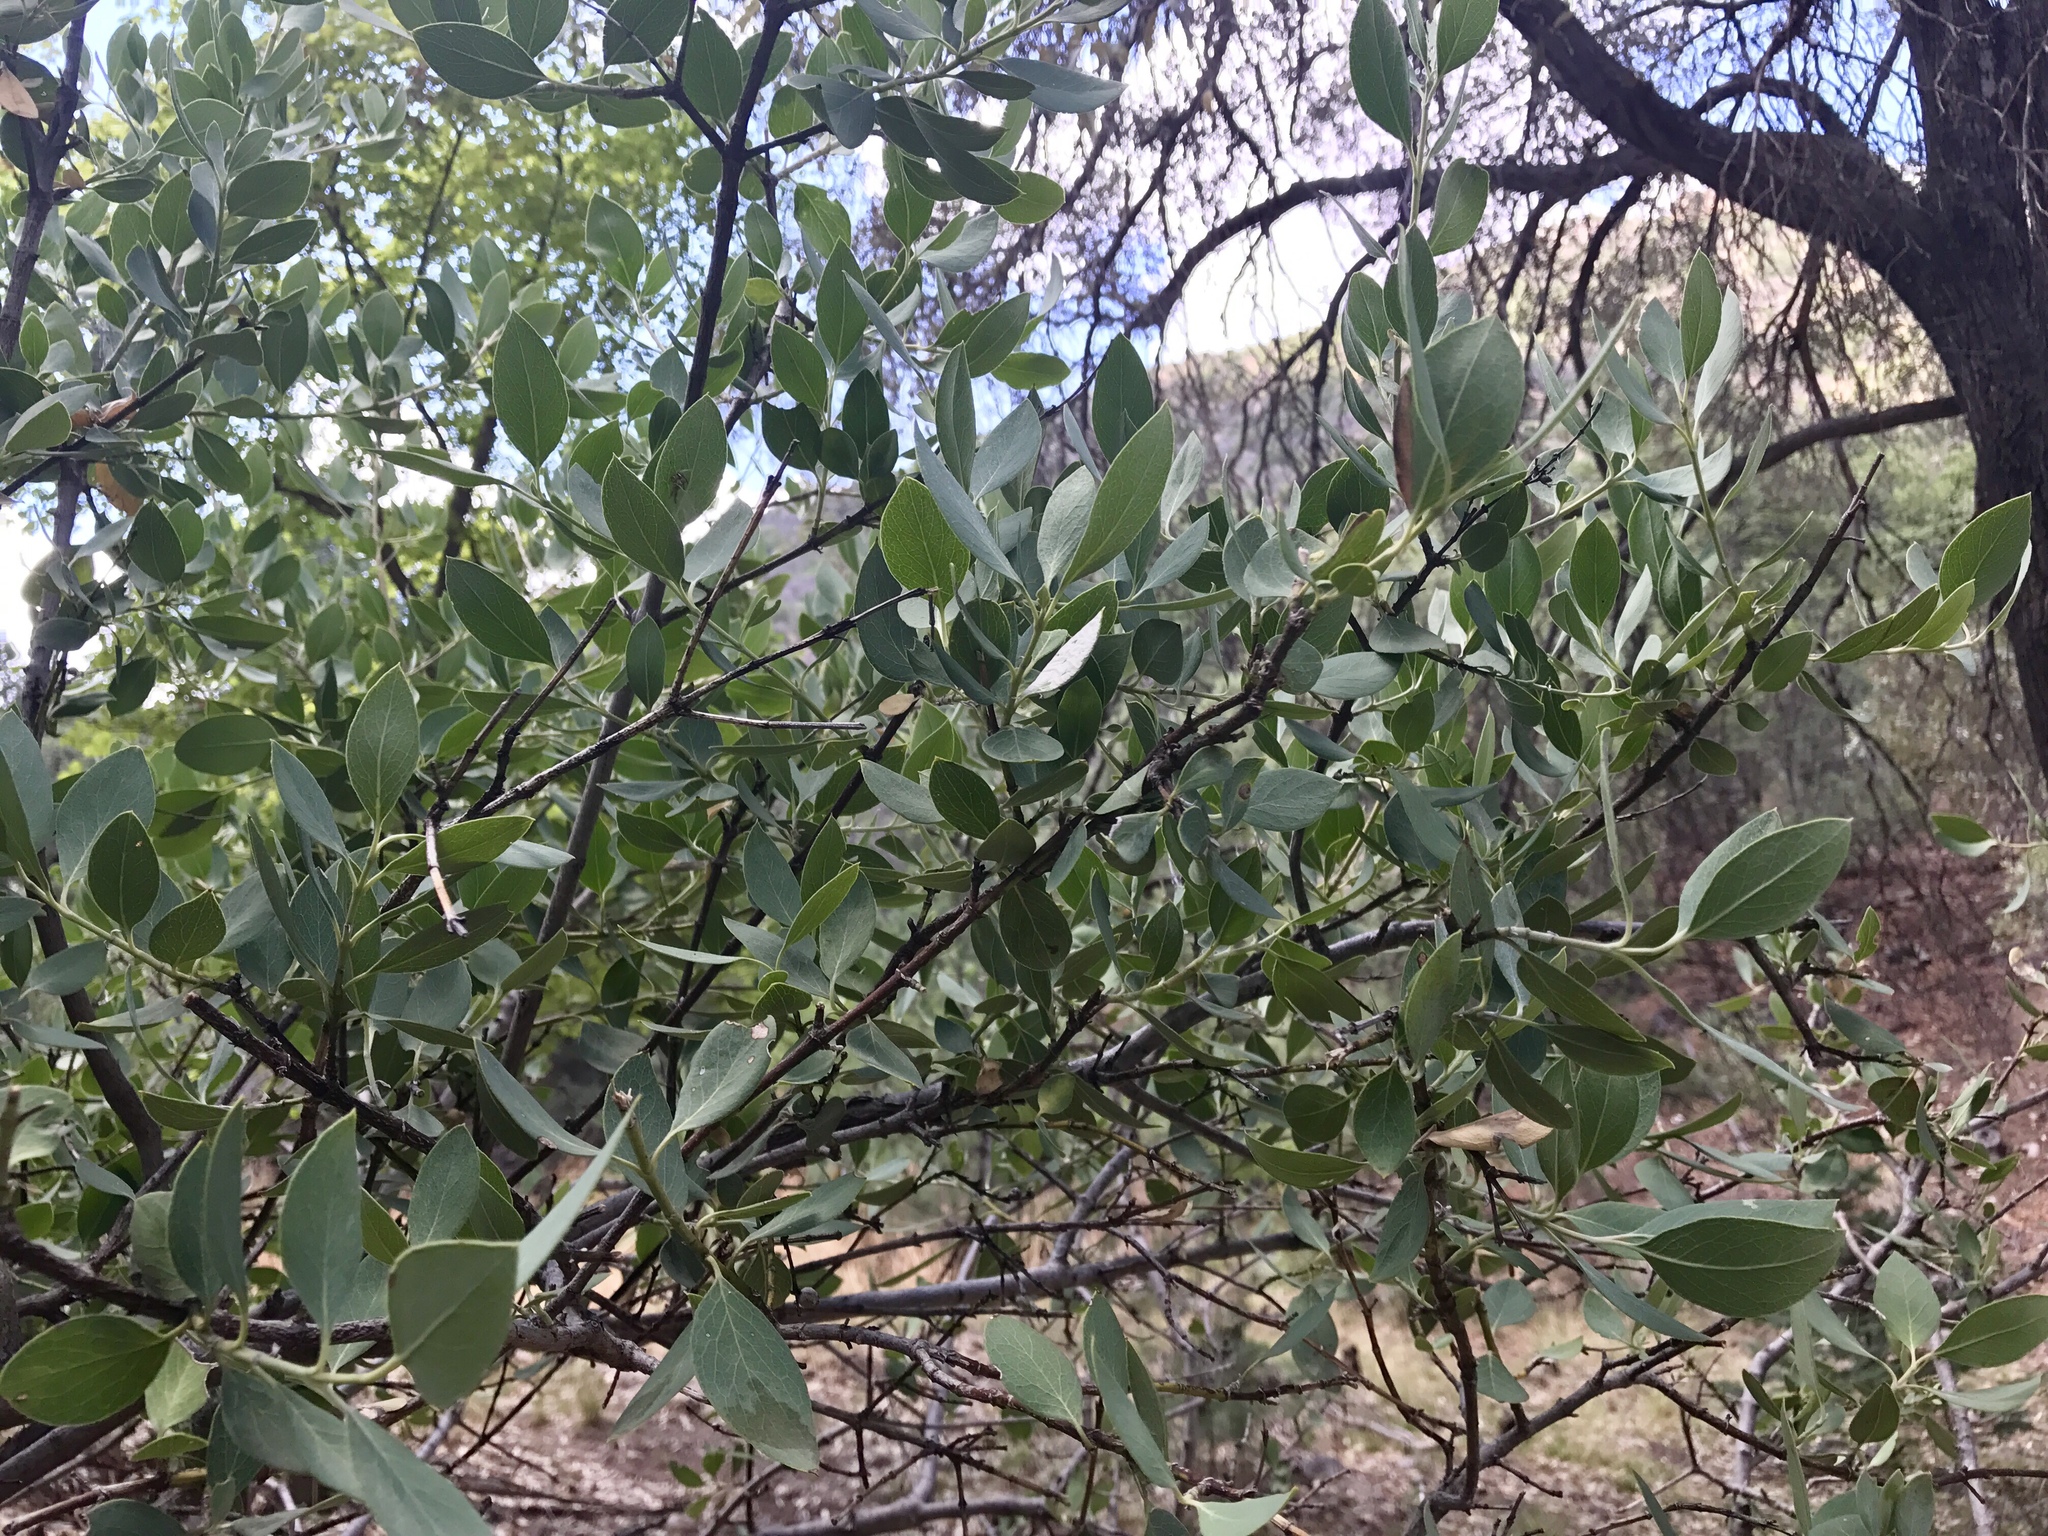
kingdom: Plantae
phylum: Tracheophyta
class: Magnoliopsida
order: Garryales
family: Garryaceae
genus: Garrya
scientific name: Garrya wrightii
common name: Wright's silktassel
